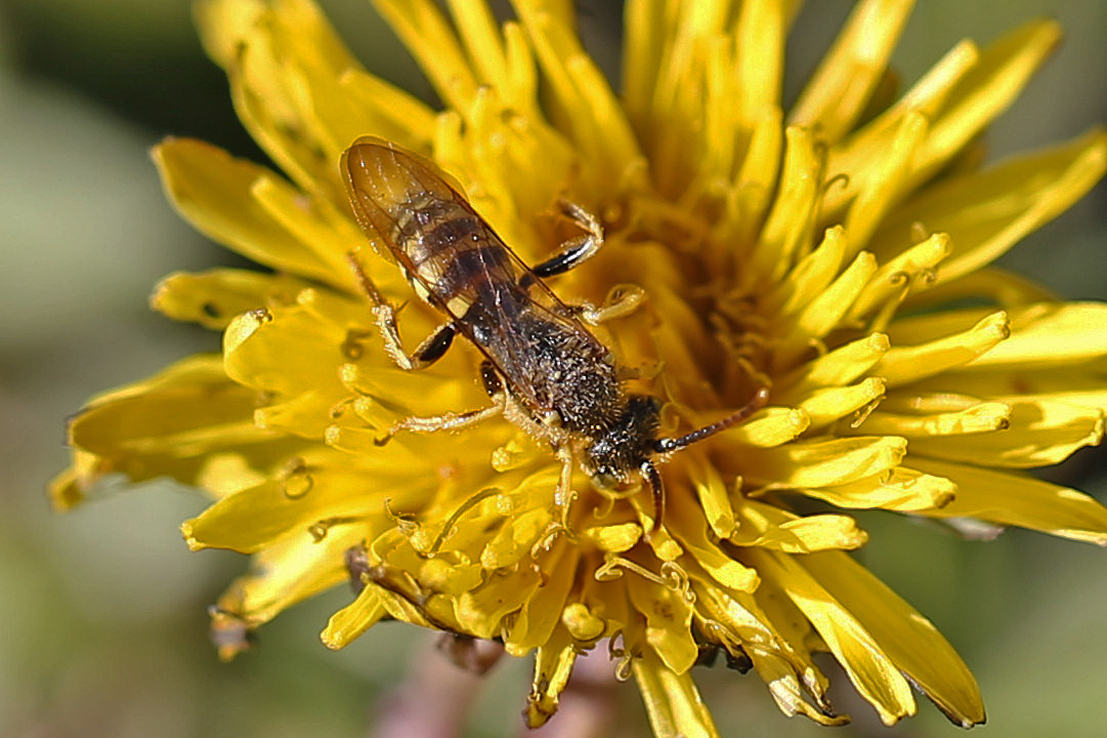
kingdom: Animalia
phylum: Arthropoda
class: Insecta
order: Hymenoptera
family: Apidae
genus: Nomada
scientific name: Nomada
